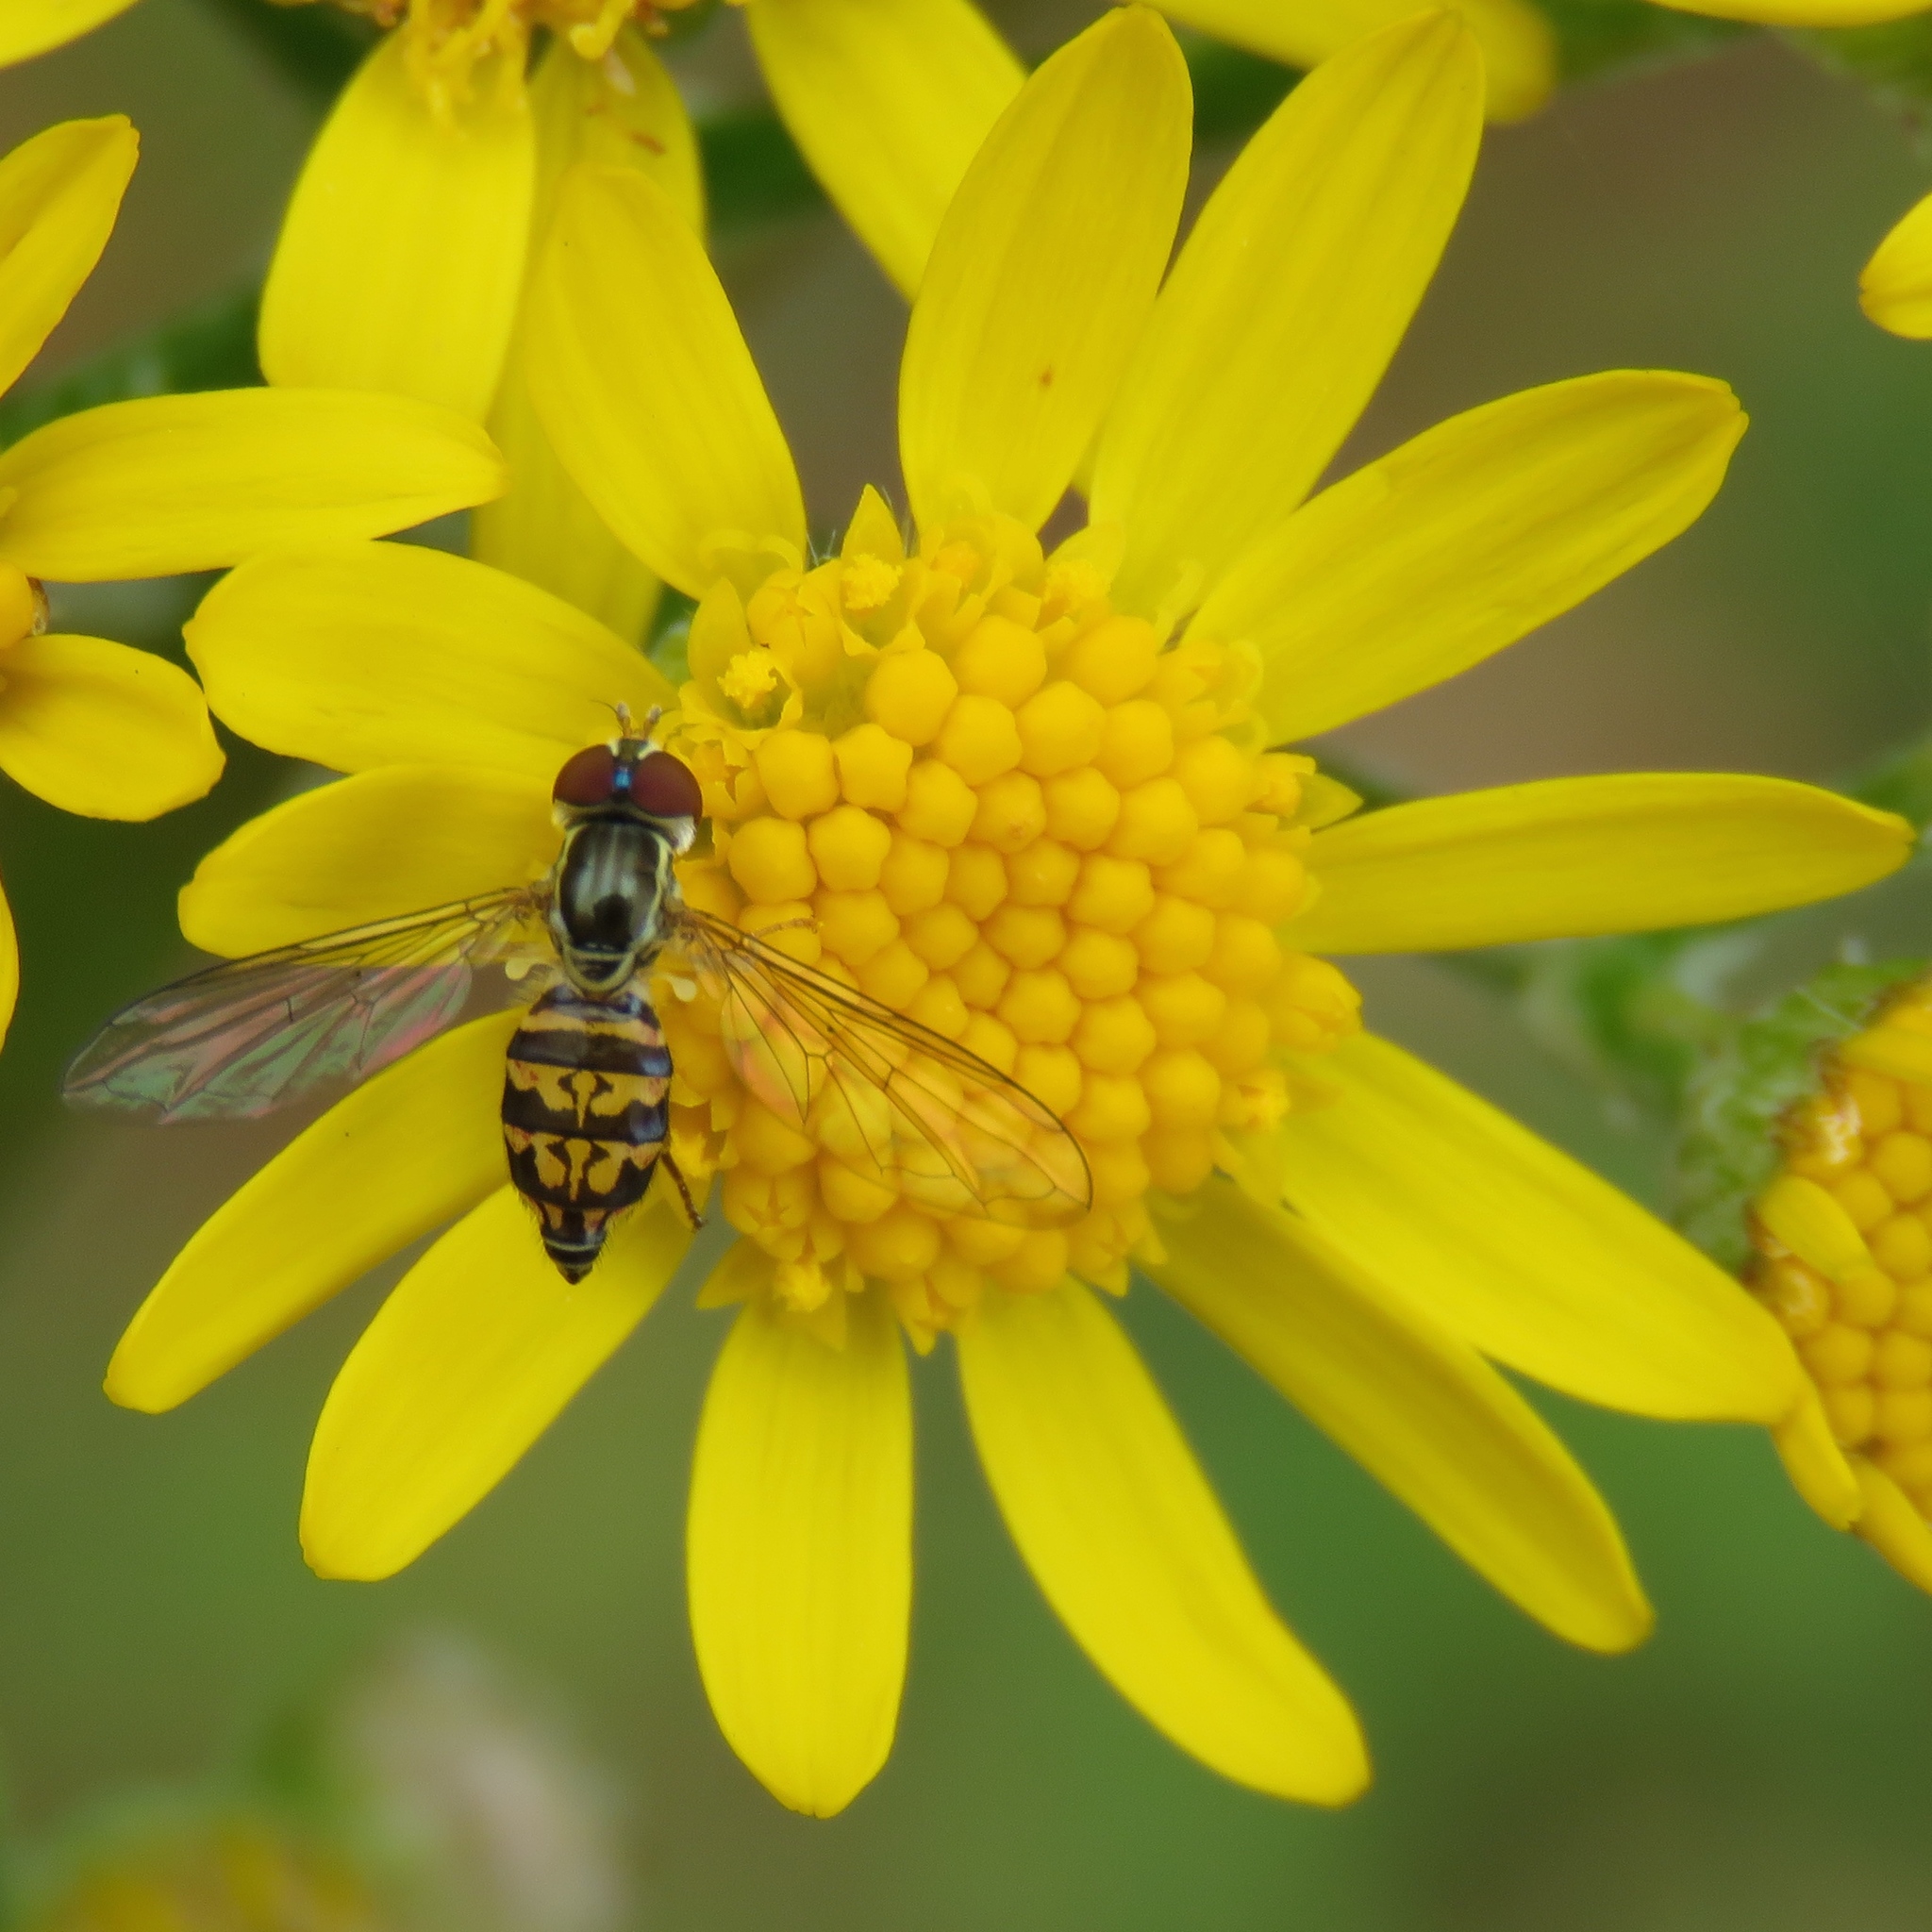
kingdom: Animalia
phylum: Arthropoda
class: Insecta
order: Diptera
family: Syrphidae
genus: Toxomerus
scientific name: Toxomerus geminatus
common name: Eastern calligrapher
